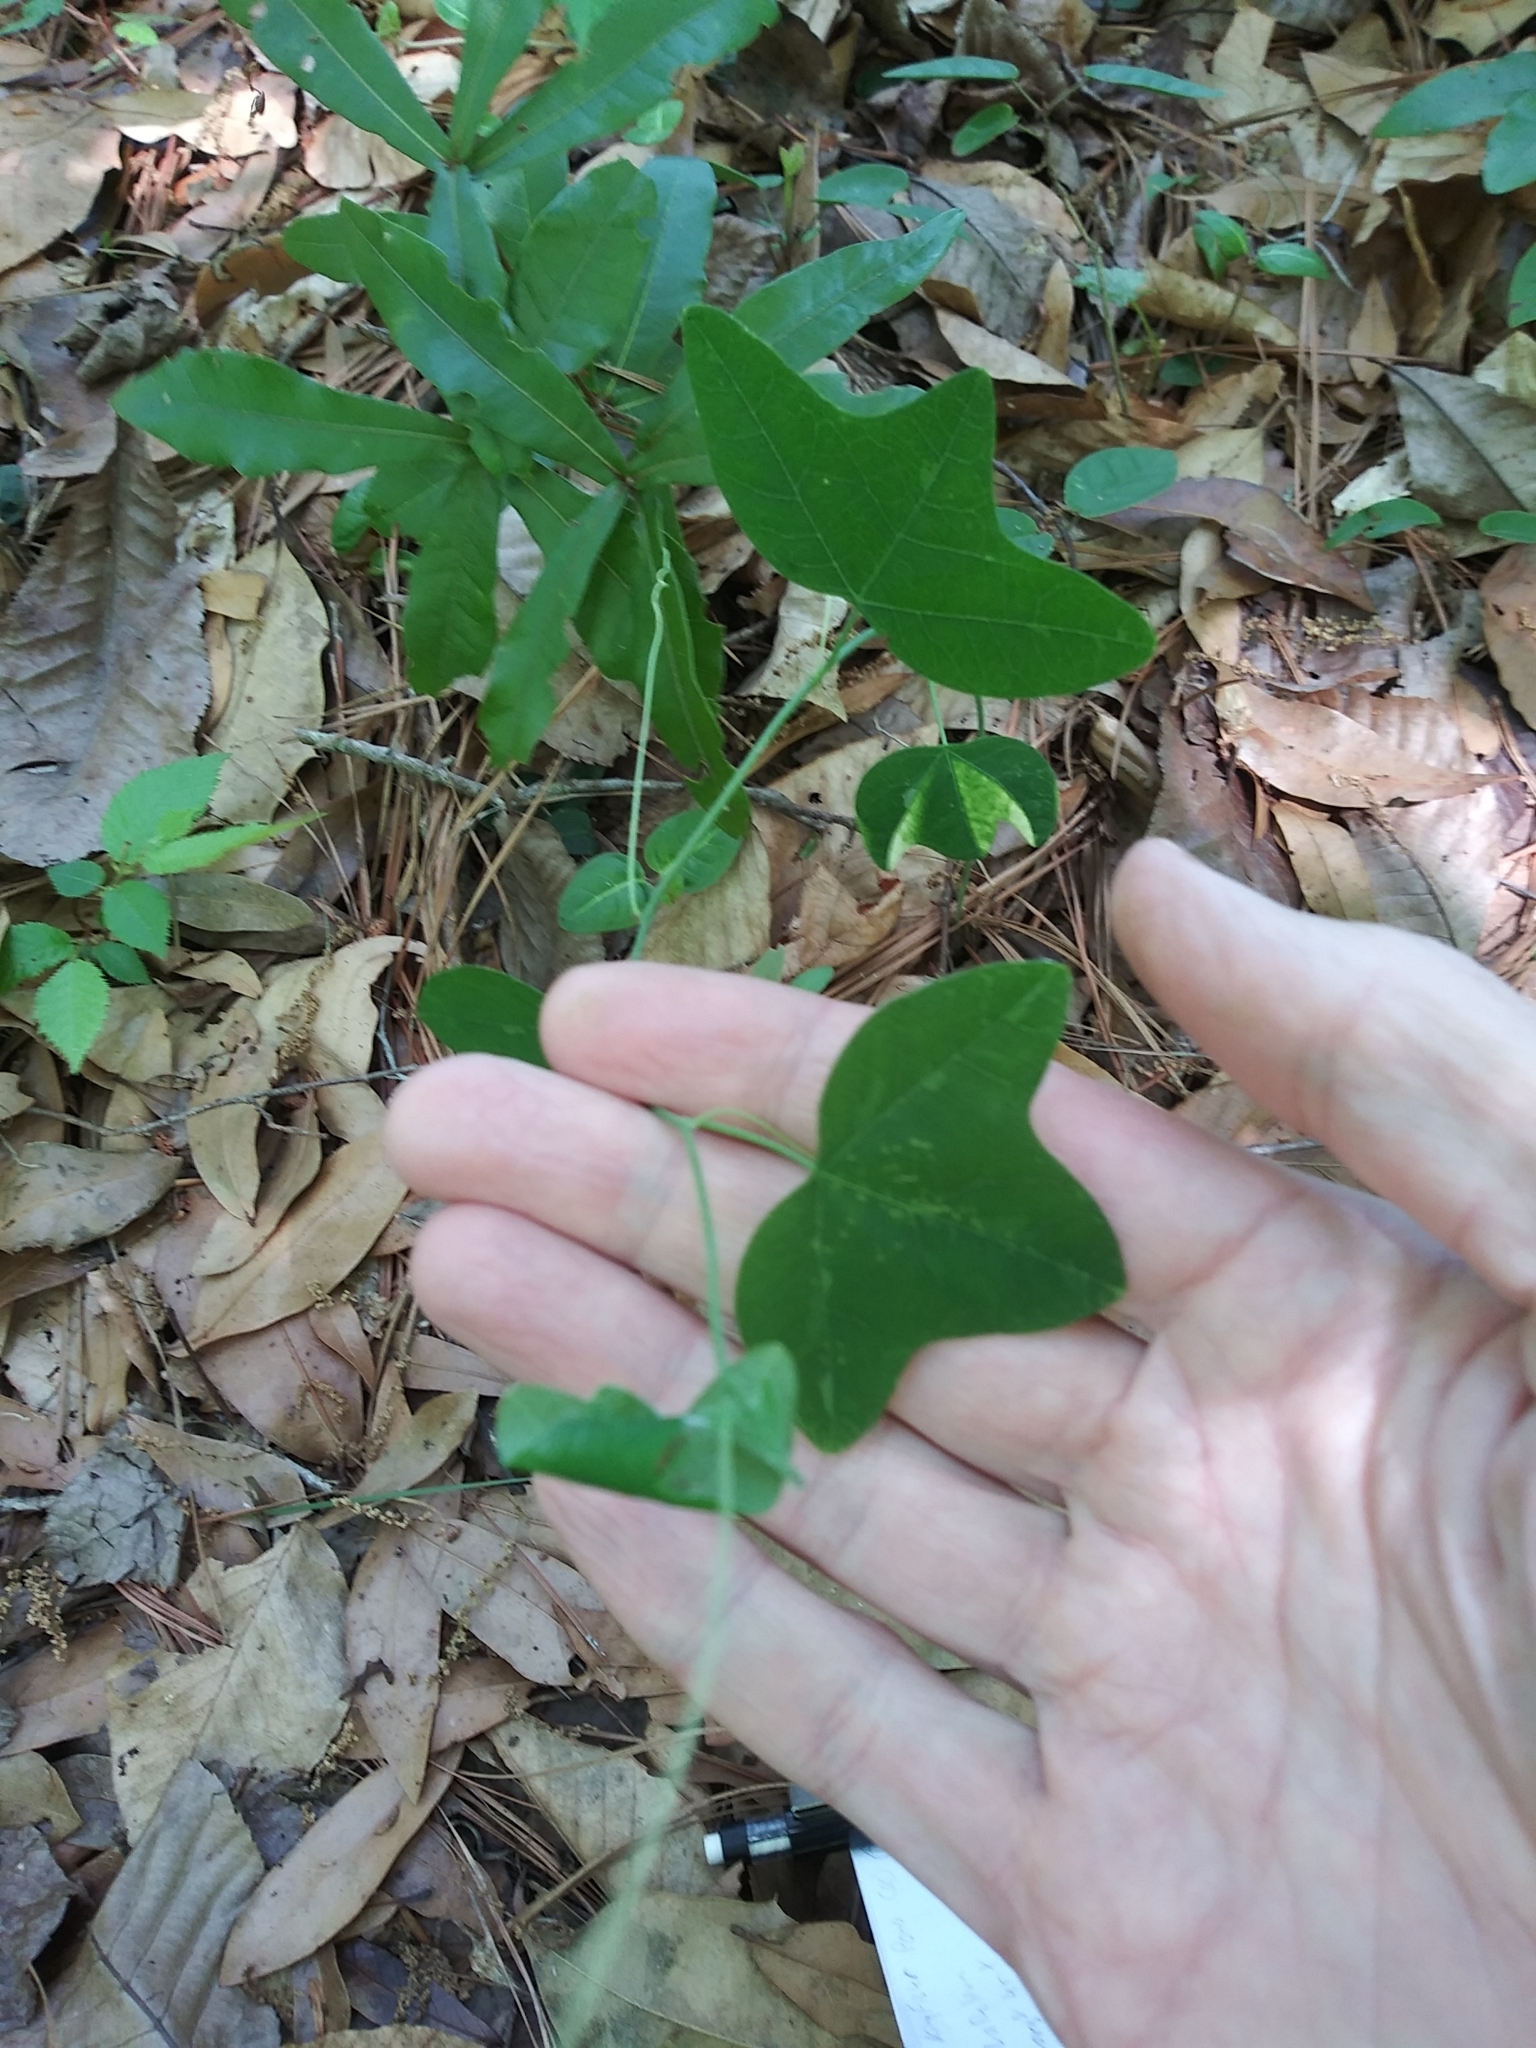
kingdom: Plantae
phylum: Tracheophyta
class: Magnoliopsida
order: Malpighiales
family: Passifloraceae
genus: Passiflora
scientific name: Passiflora lutea
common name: Yellow passionflower
